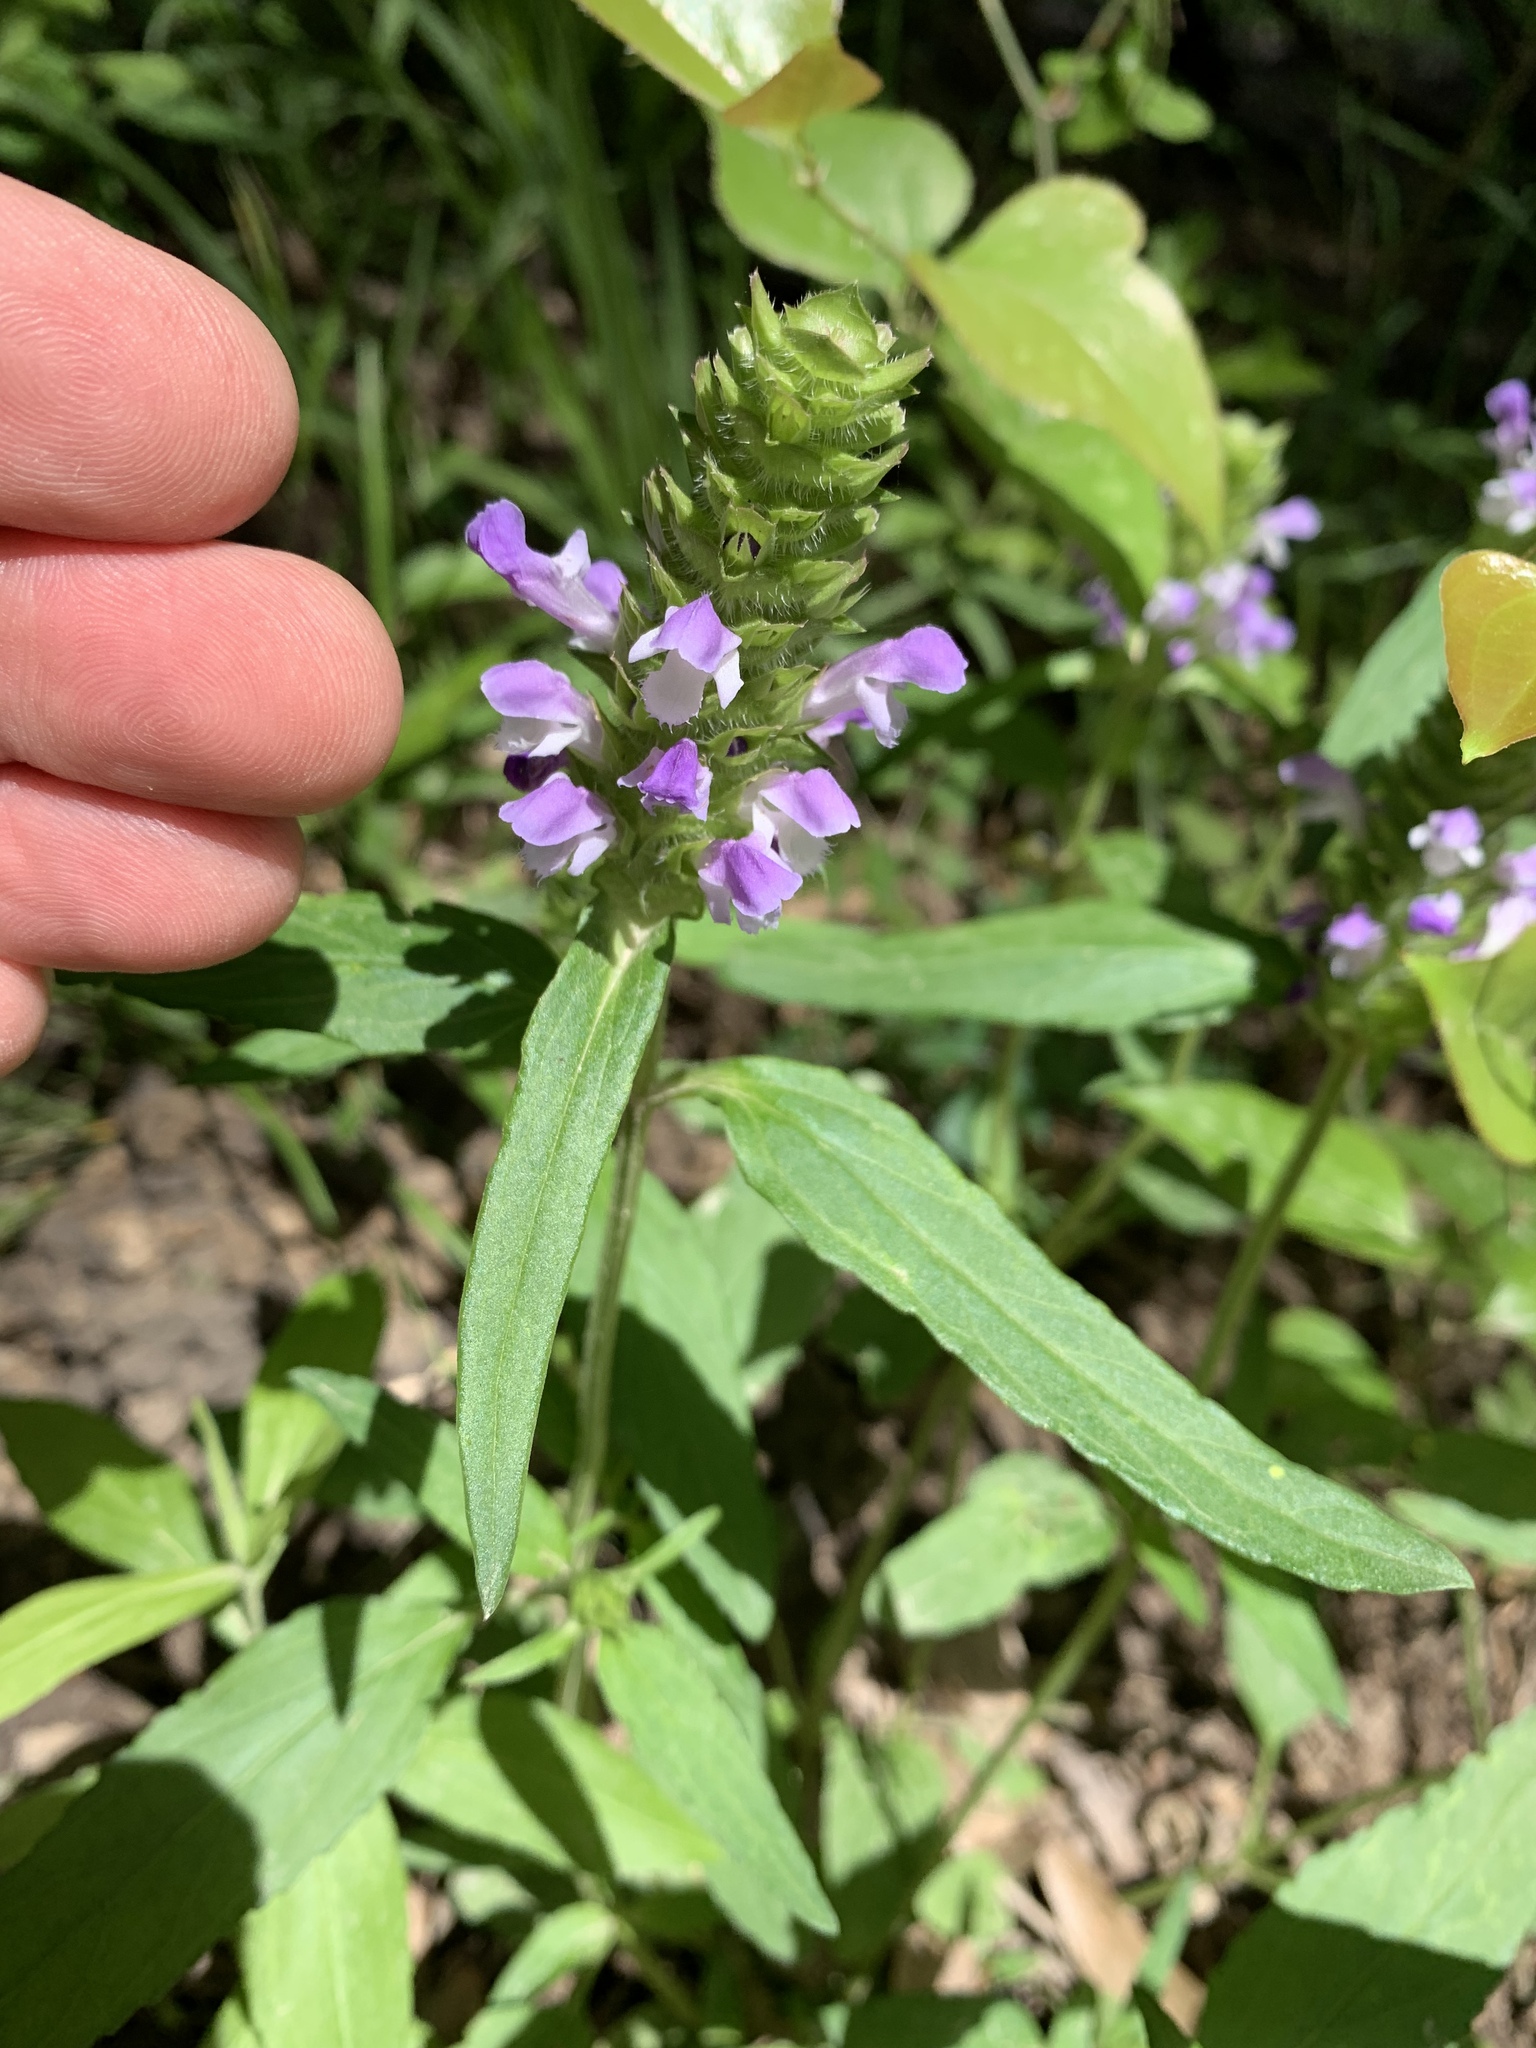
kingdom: Plantae
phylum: Tracheophyta
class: Magnoliopsida
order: Lamiales
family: Lamiaceae
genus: Prunella
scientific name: Prunella vulgaris
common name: Heal-all
